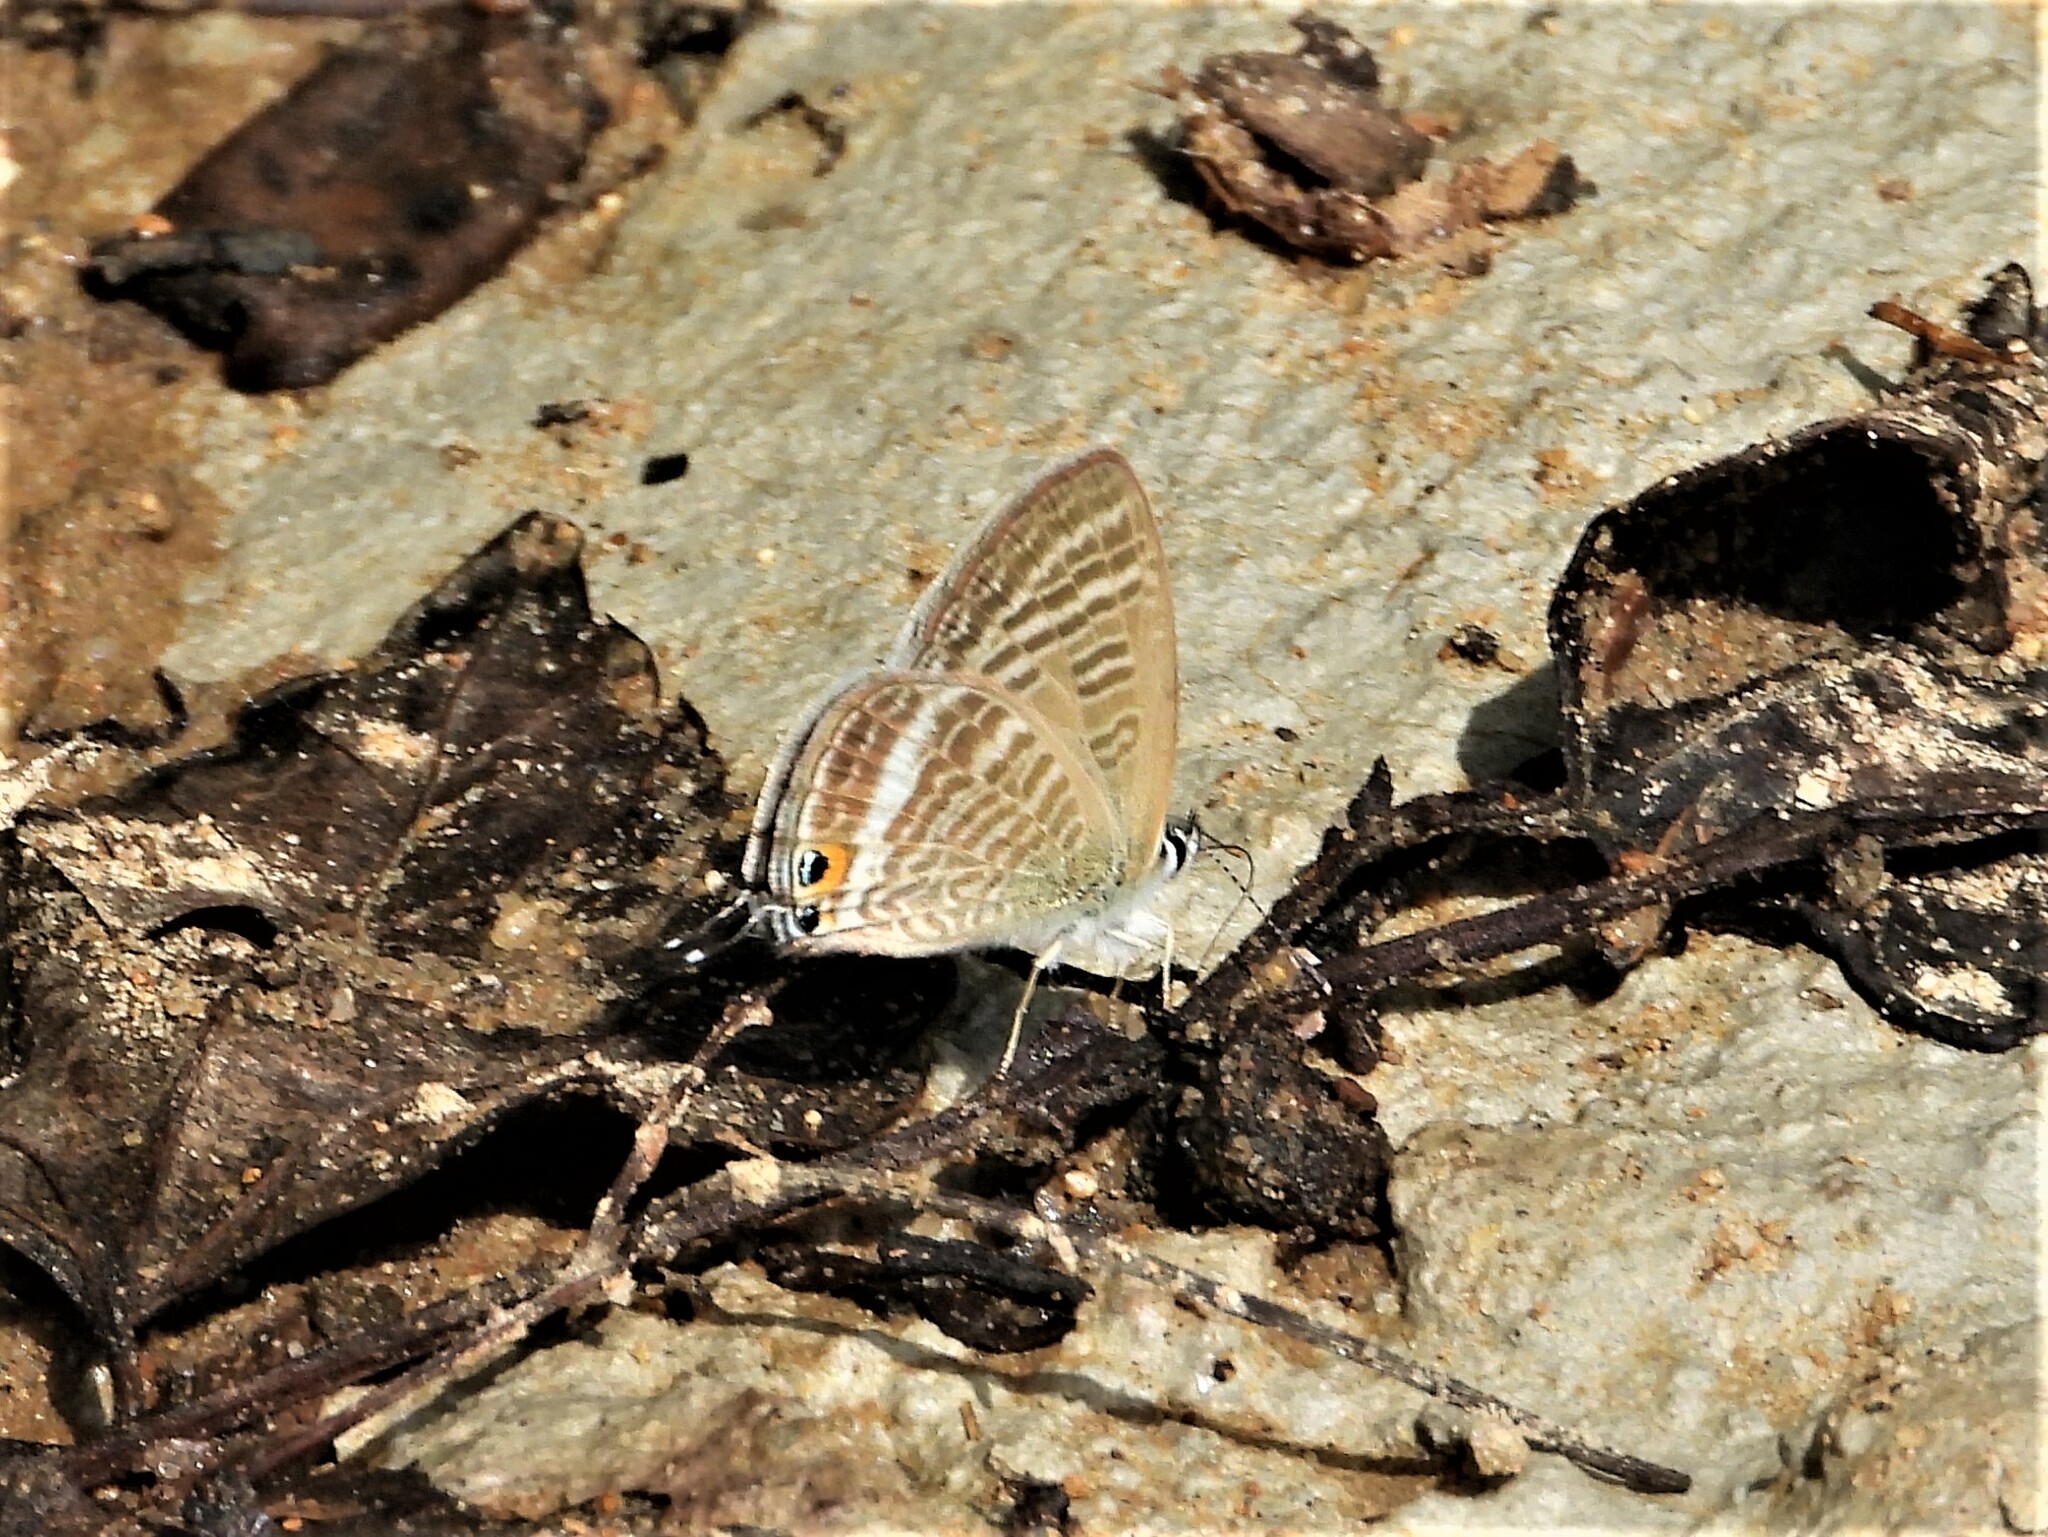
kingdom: Animalia
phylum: Arthropoda
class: Insecta
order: Lepidoptera
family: Lycaenidae
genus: Lampides
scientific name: Lampides boeticus
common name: Long-tailed blue
